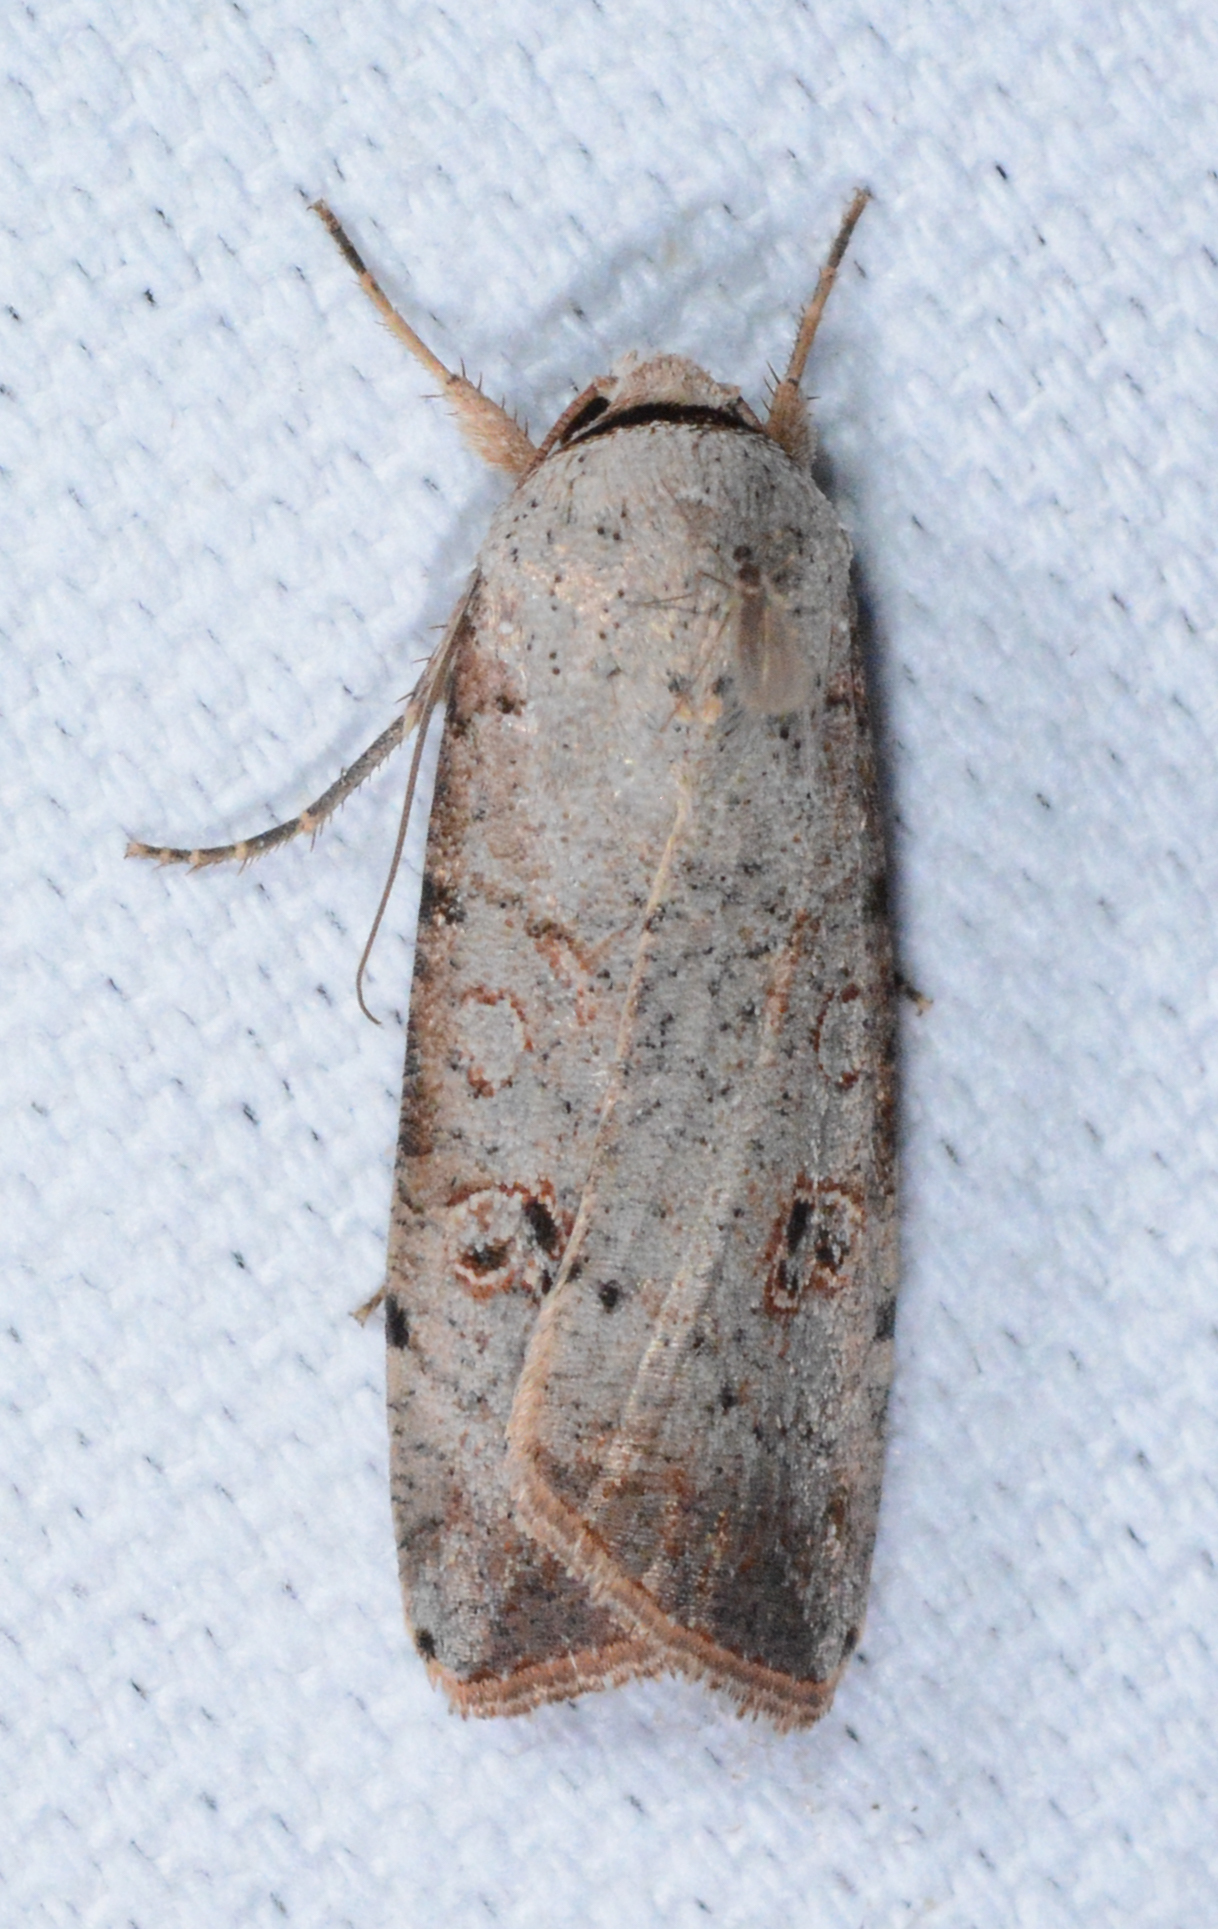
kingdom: Animalia
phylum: Arthropoda
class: Insecta
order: Lepidoptera
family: Noctuidae
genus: Anicla
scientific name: Anicla infecta
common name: Green cutworm
